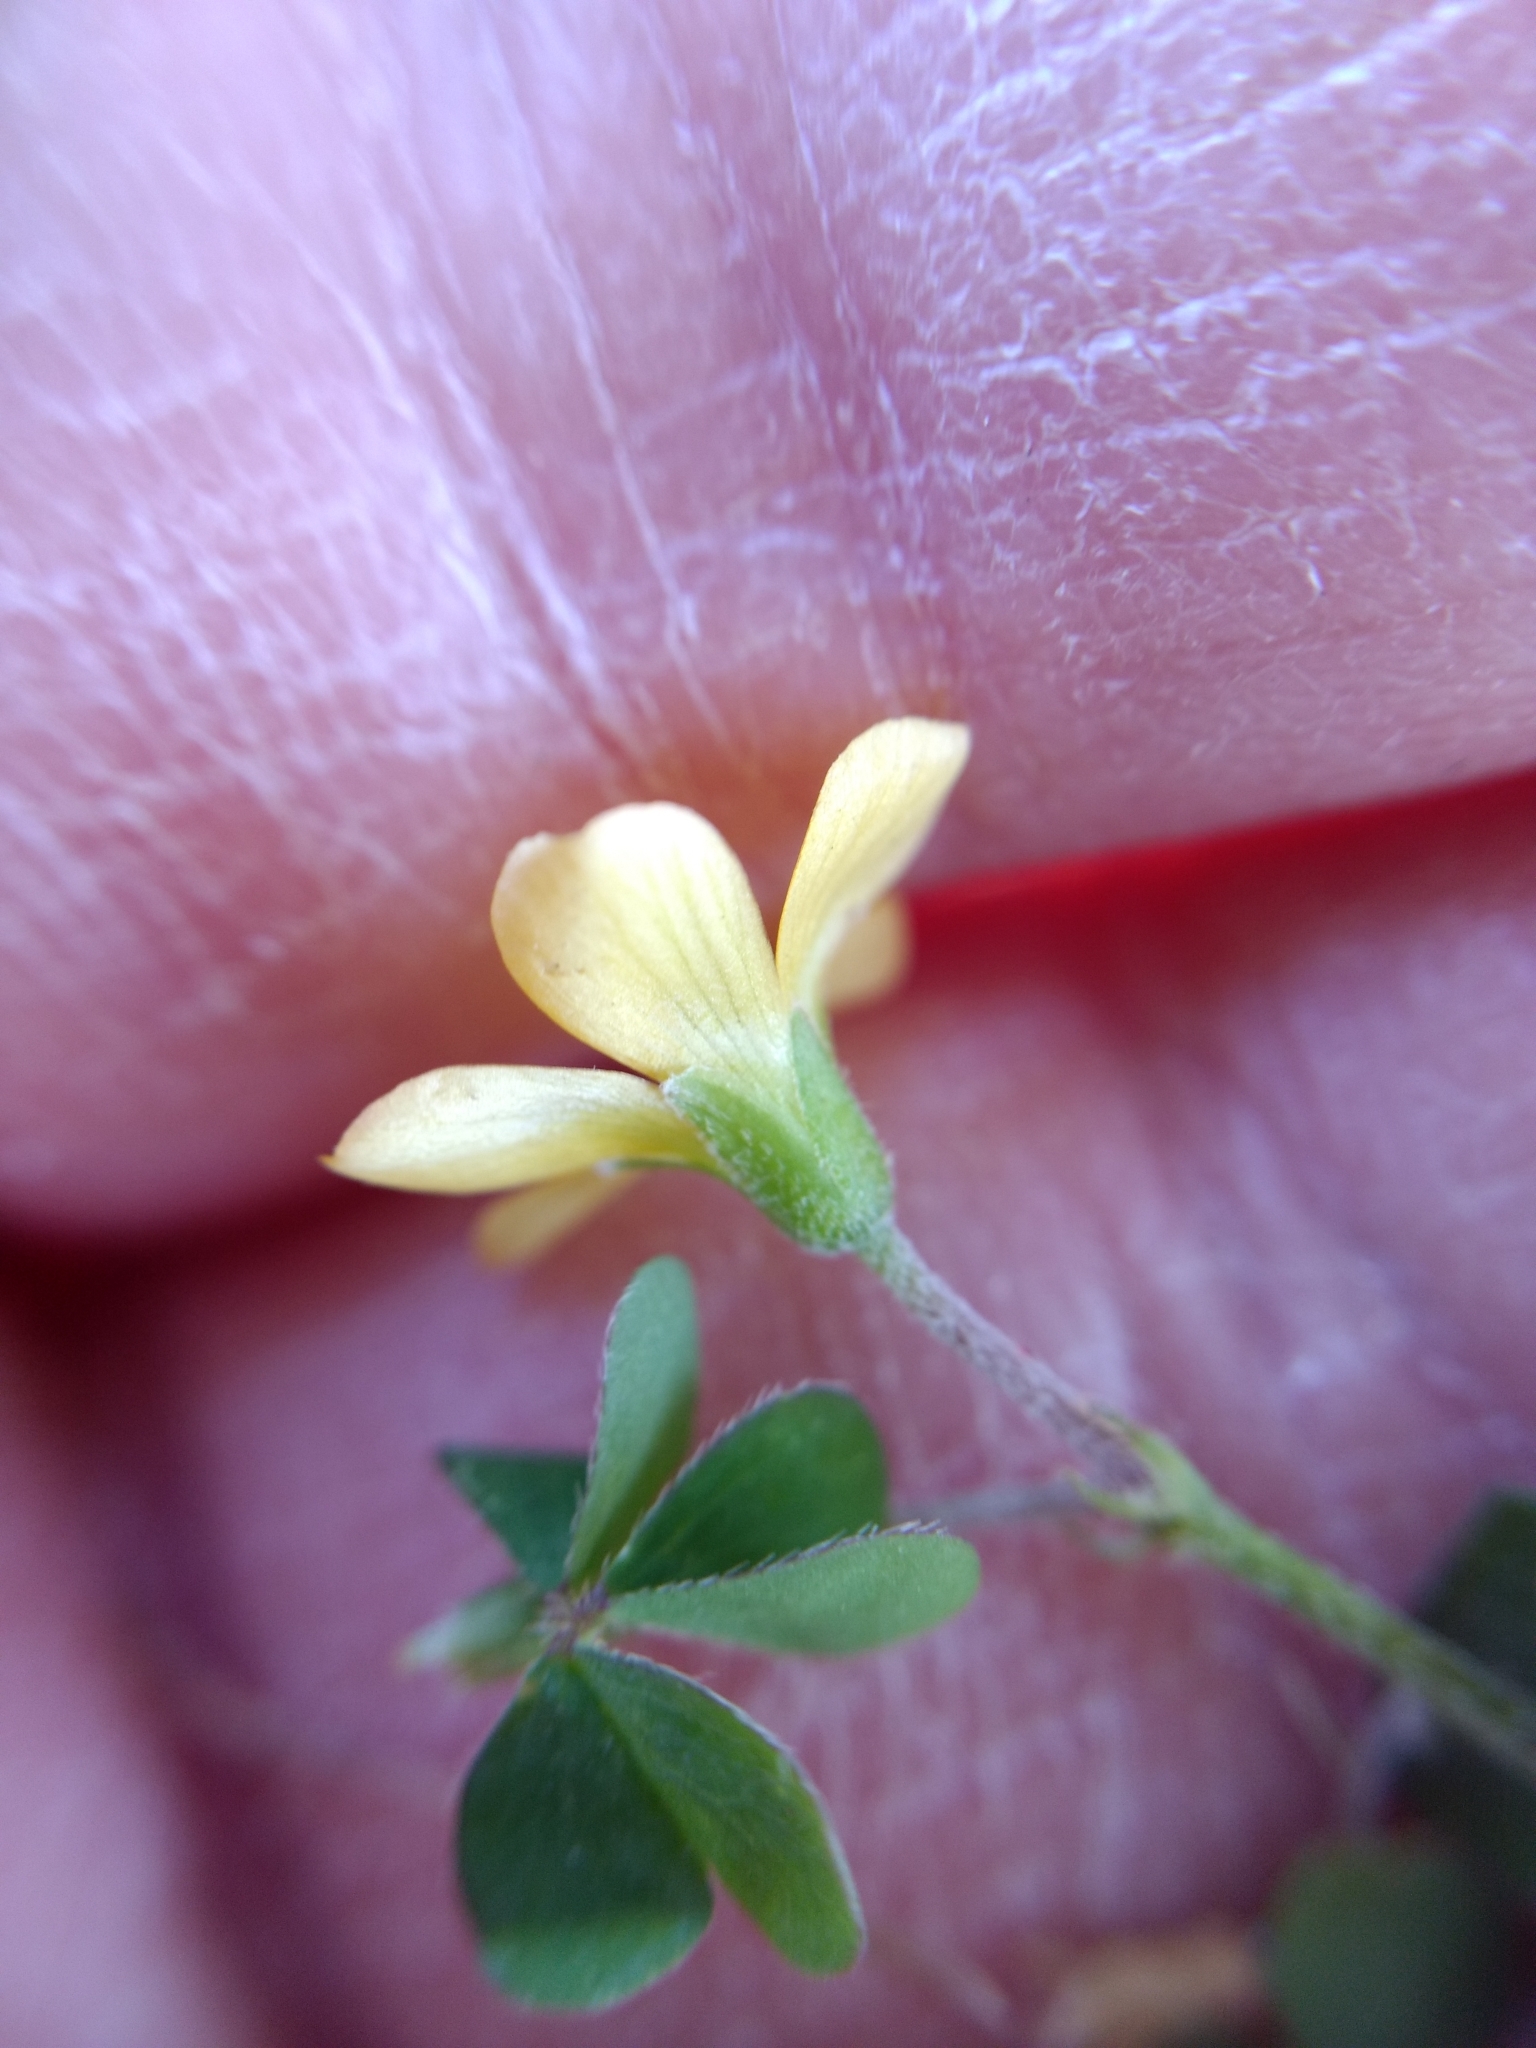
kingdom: Plantae
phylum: Tracheophyta
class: Magnoliopsida
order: Oxalidales
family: Oxalidaceae
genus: Oxalis
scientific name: Oxalis corniculata
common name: Procumbent yellow-sorrel
